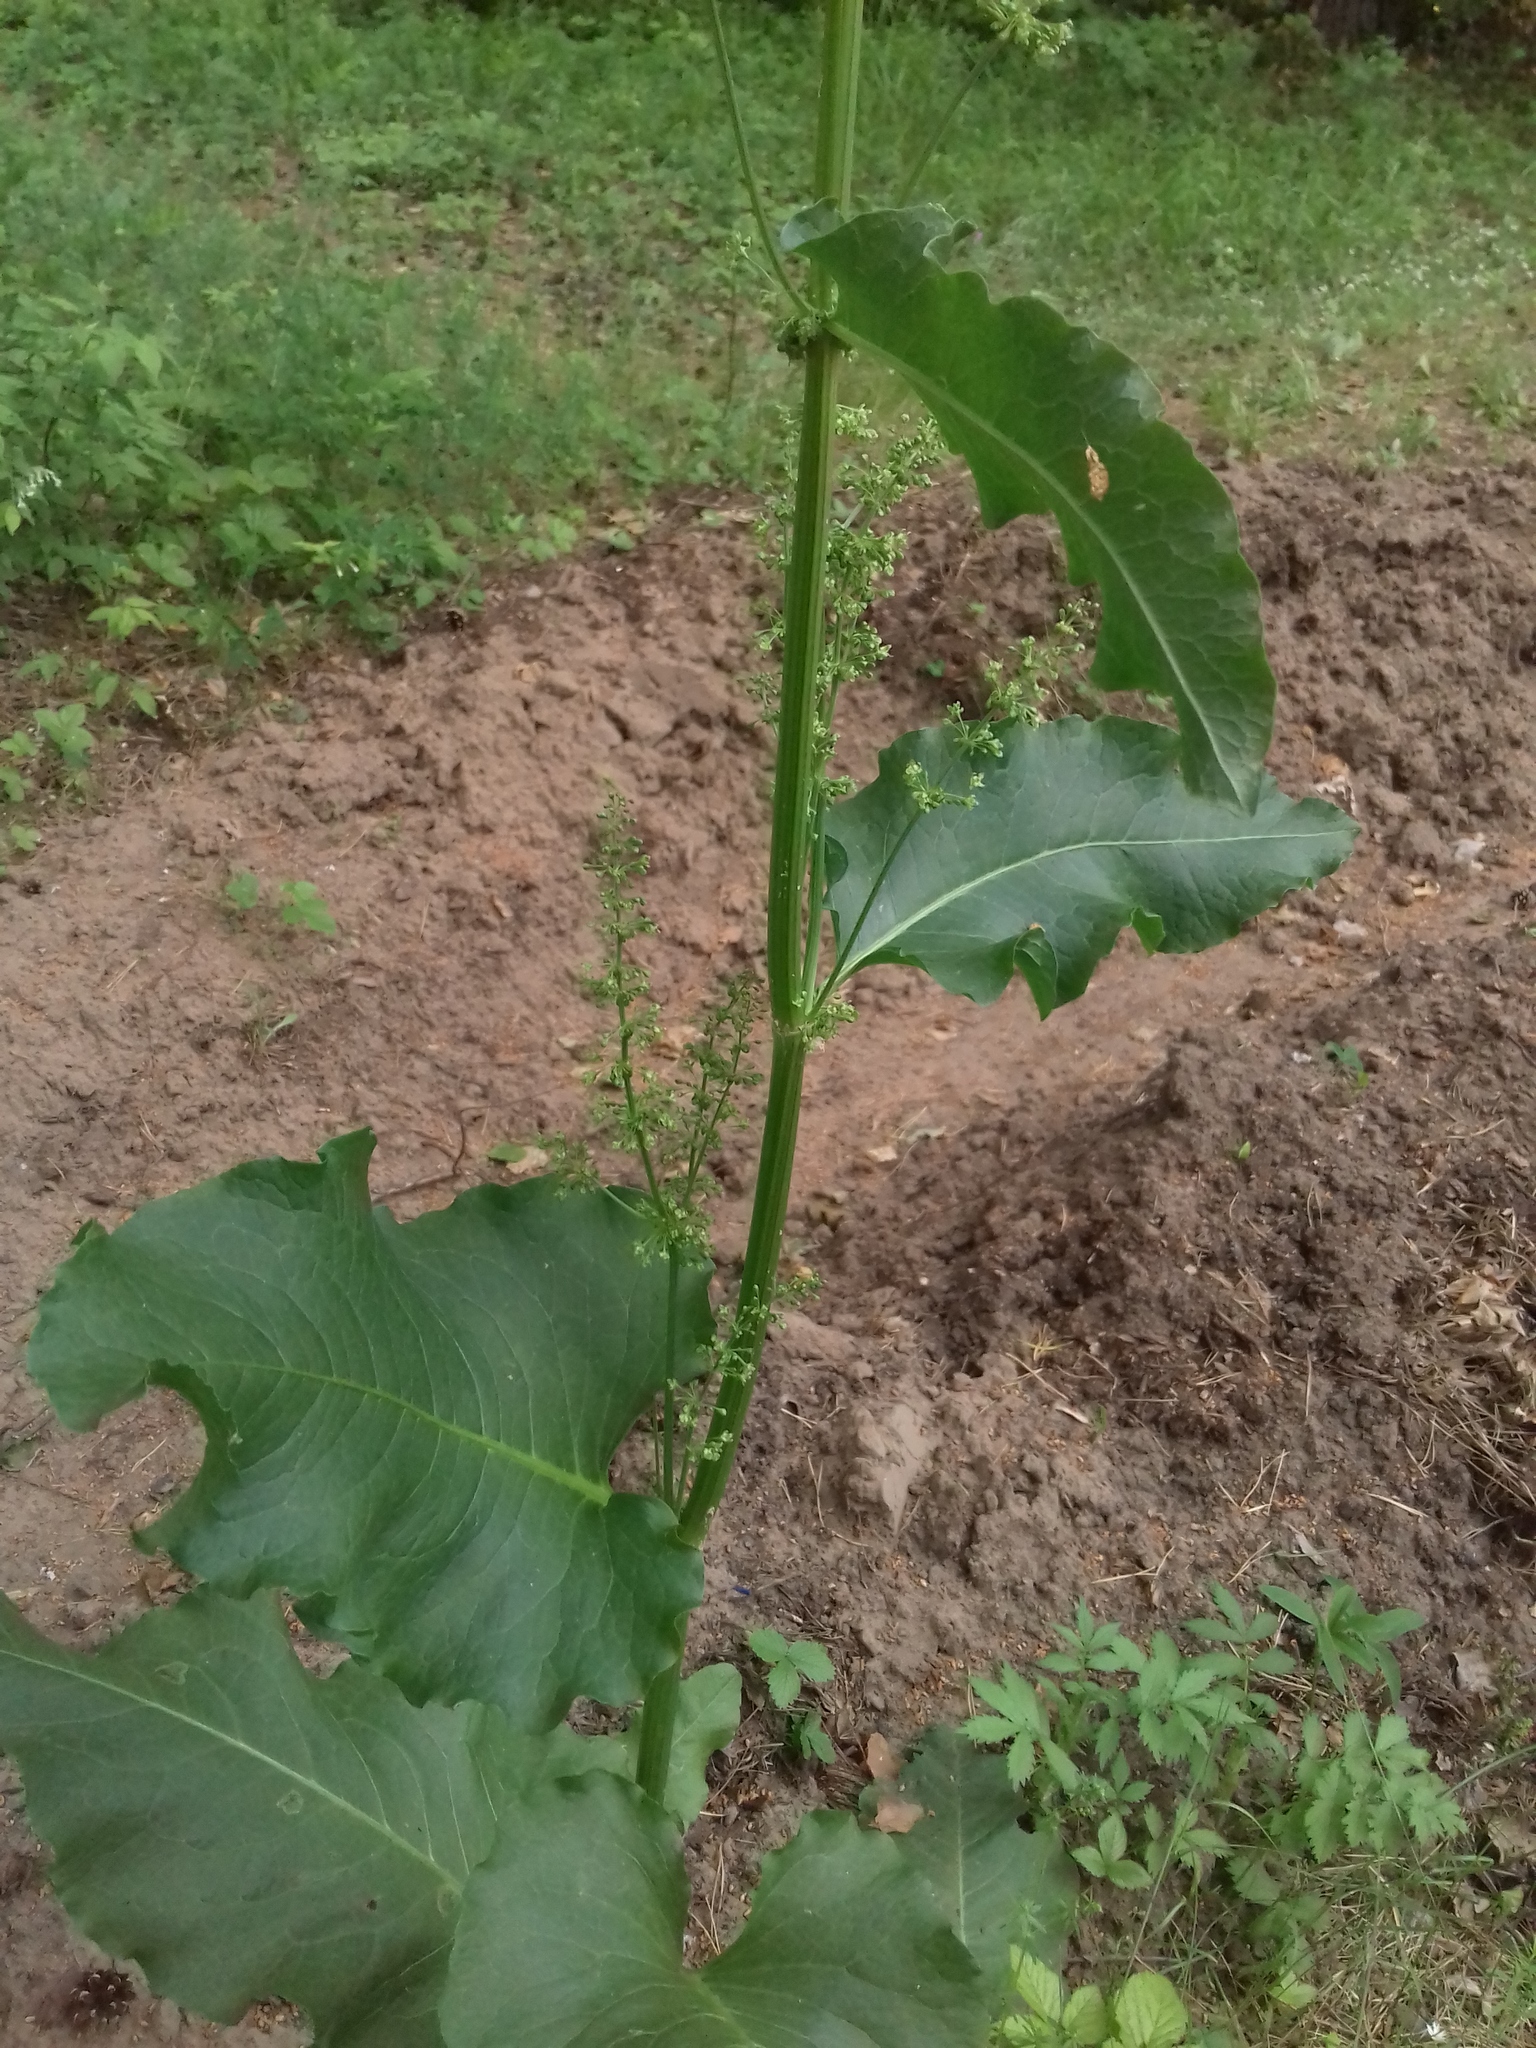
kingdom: Plantae
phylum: Tracheophyta
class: Magnoliopsida
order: Caryophyllales
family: Polygonaceae
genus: Rumex
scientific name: Rumex confertus
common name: Russian dock
